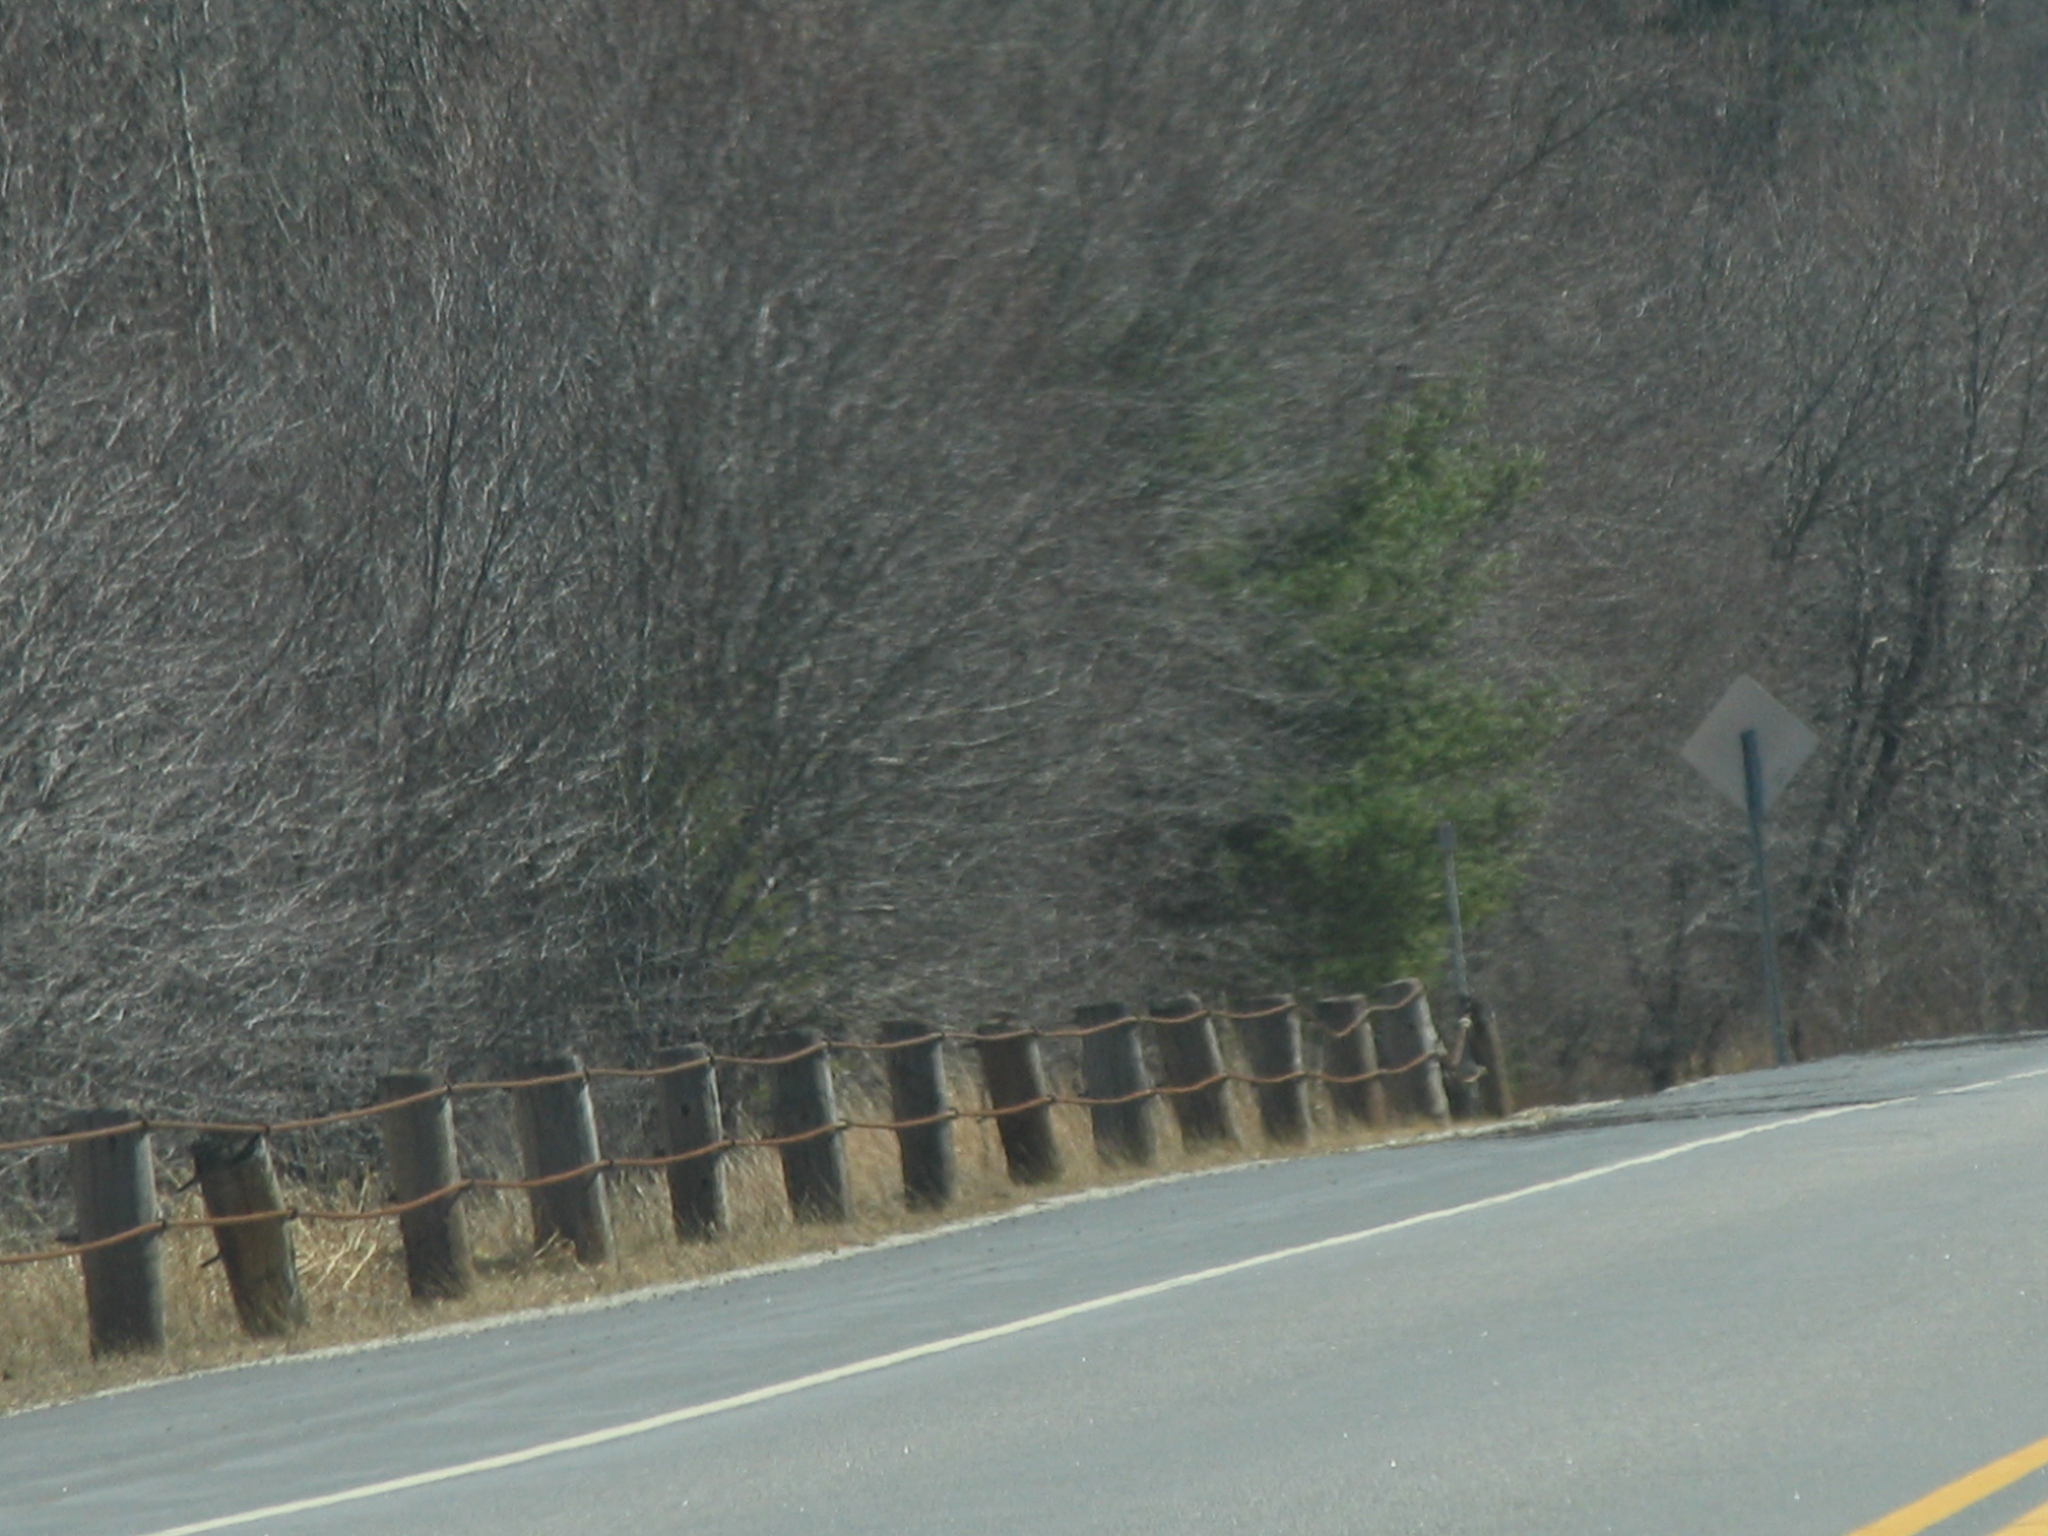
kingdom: Plantae
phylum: Tracheophyta
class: Pinopsida
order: Pinales
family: Pinaceae
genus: Pinus
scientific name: Pinus strobus
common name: Weymouth pine
